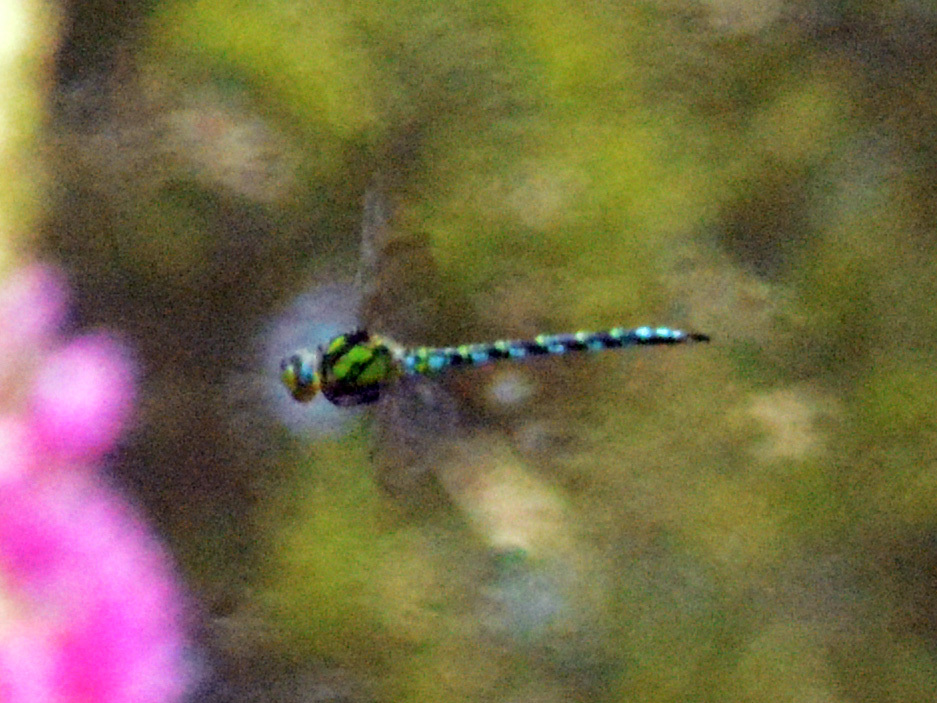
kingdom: Animalia
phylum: Arthropoda
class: Insecta
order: Odonata
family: Aeshnidae
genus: Aeshna
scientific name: Aeshna cyanea
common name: Southern hawker
